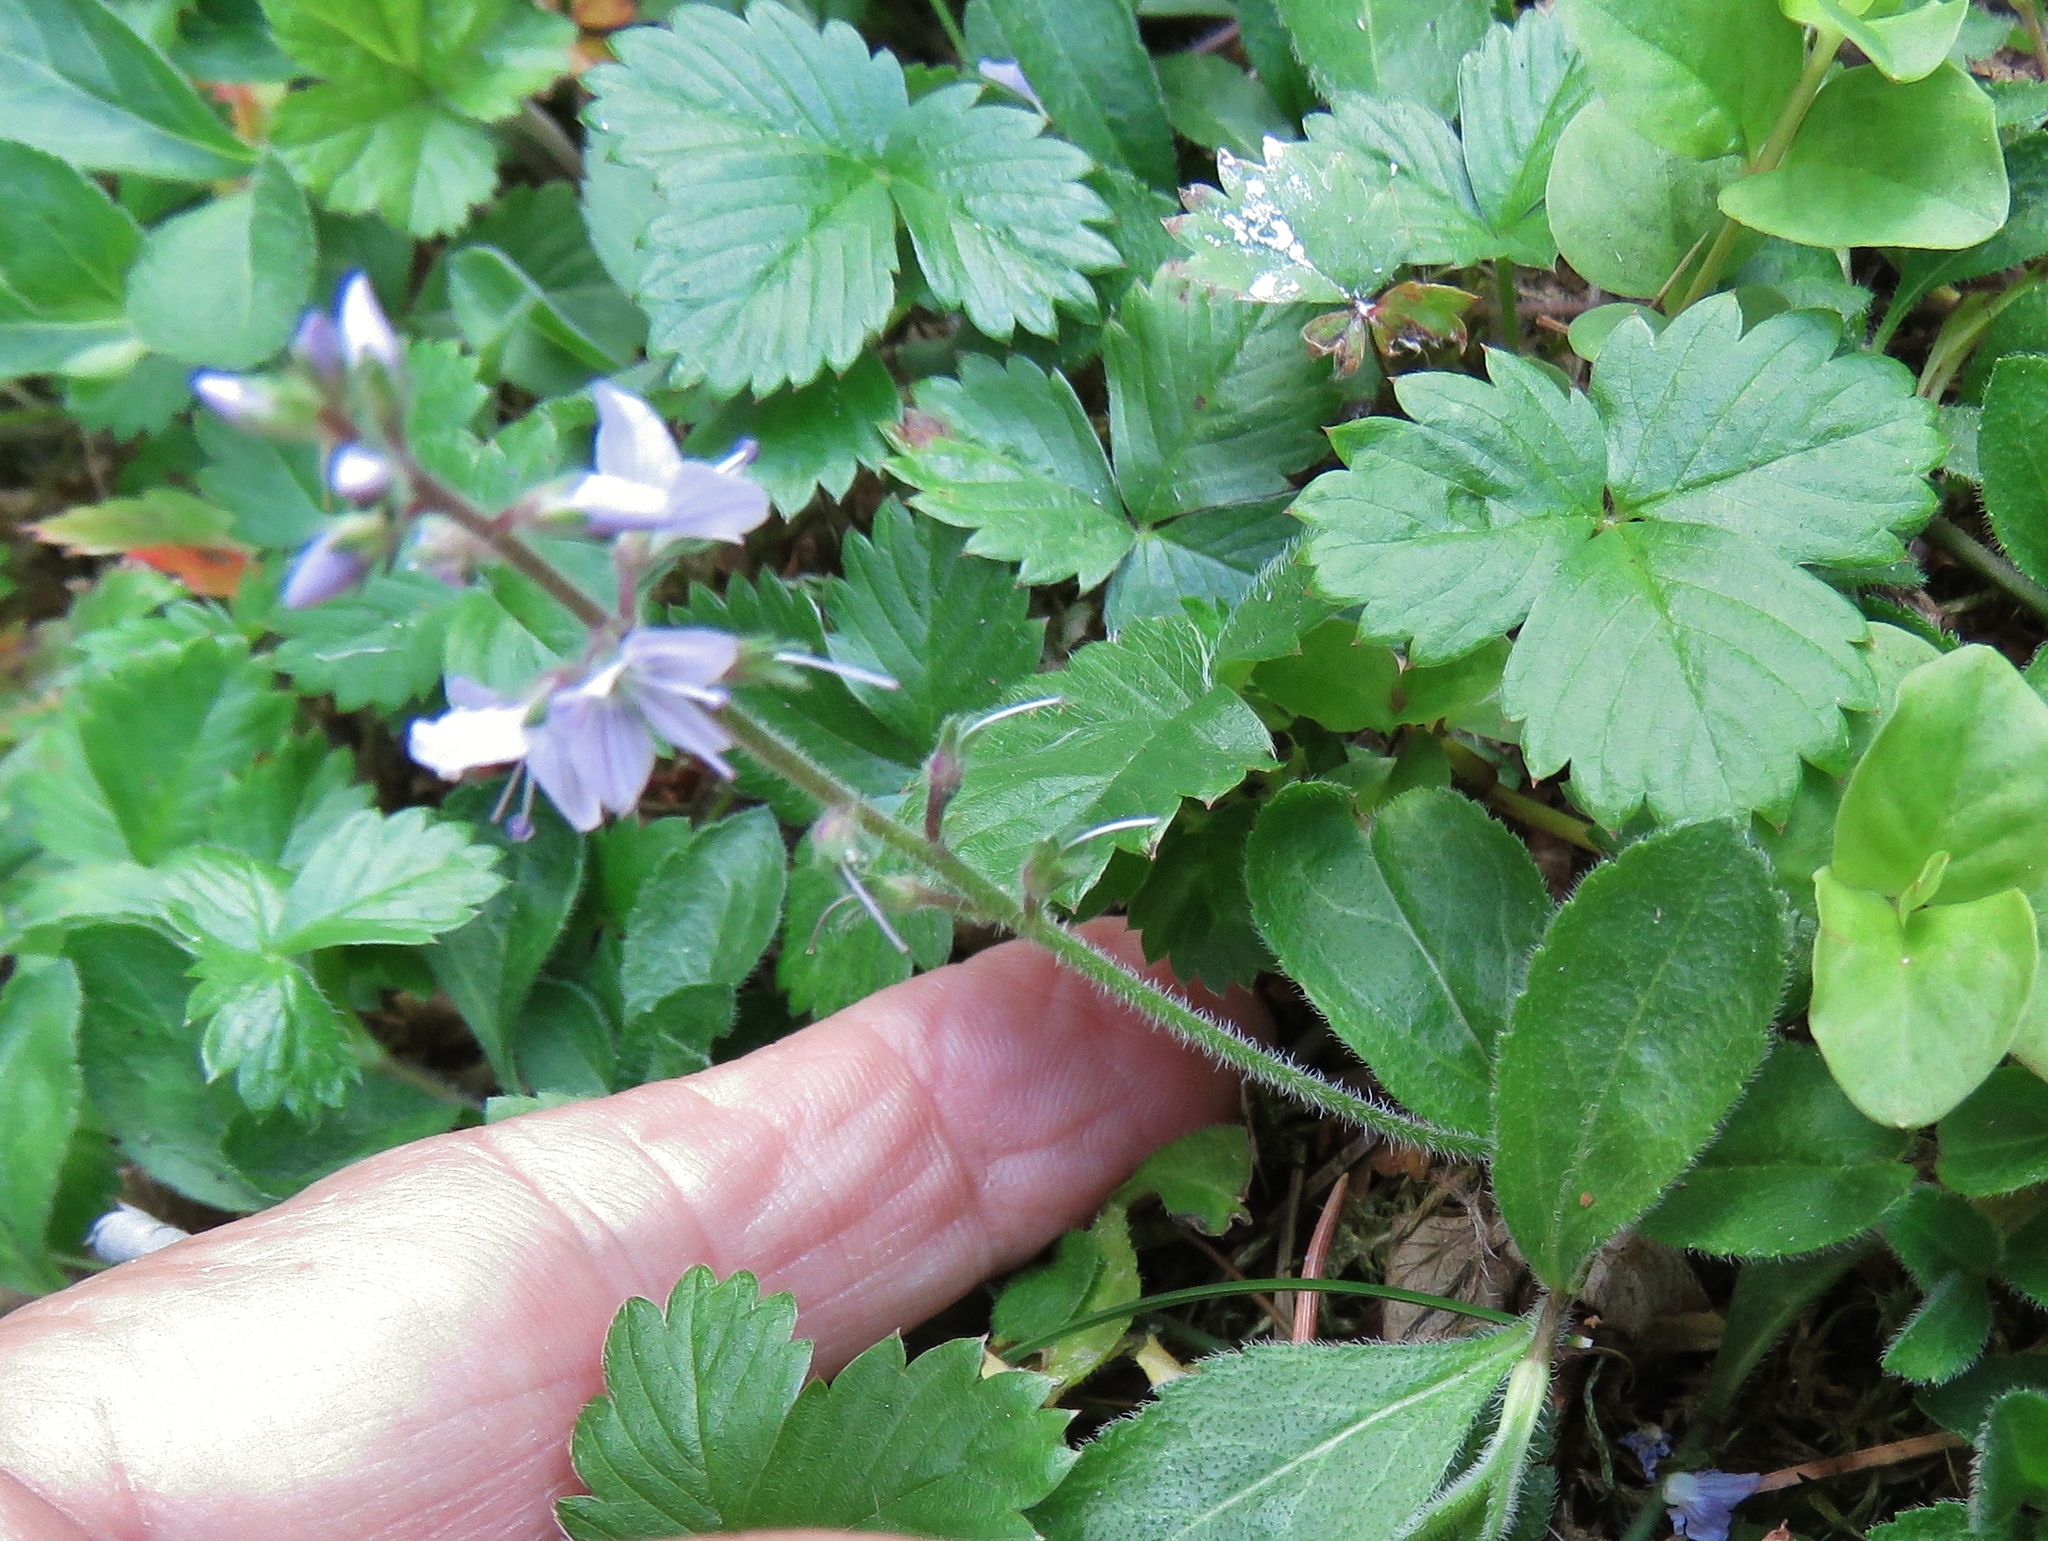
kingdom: Plantae
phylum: Tracheophyta
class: Magnoliopsida
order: Lamiales
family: Plantaginaceae
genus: Veronica
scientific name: Veronica officinalis
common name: Common speedwell
